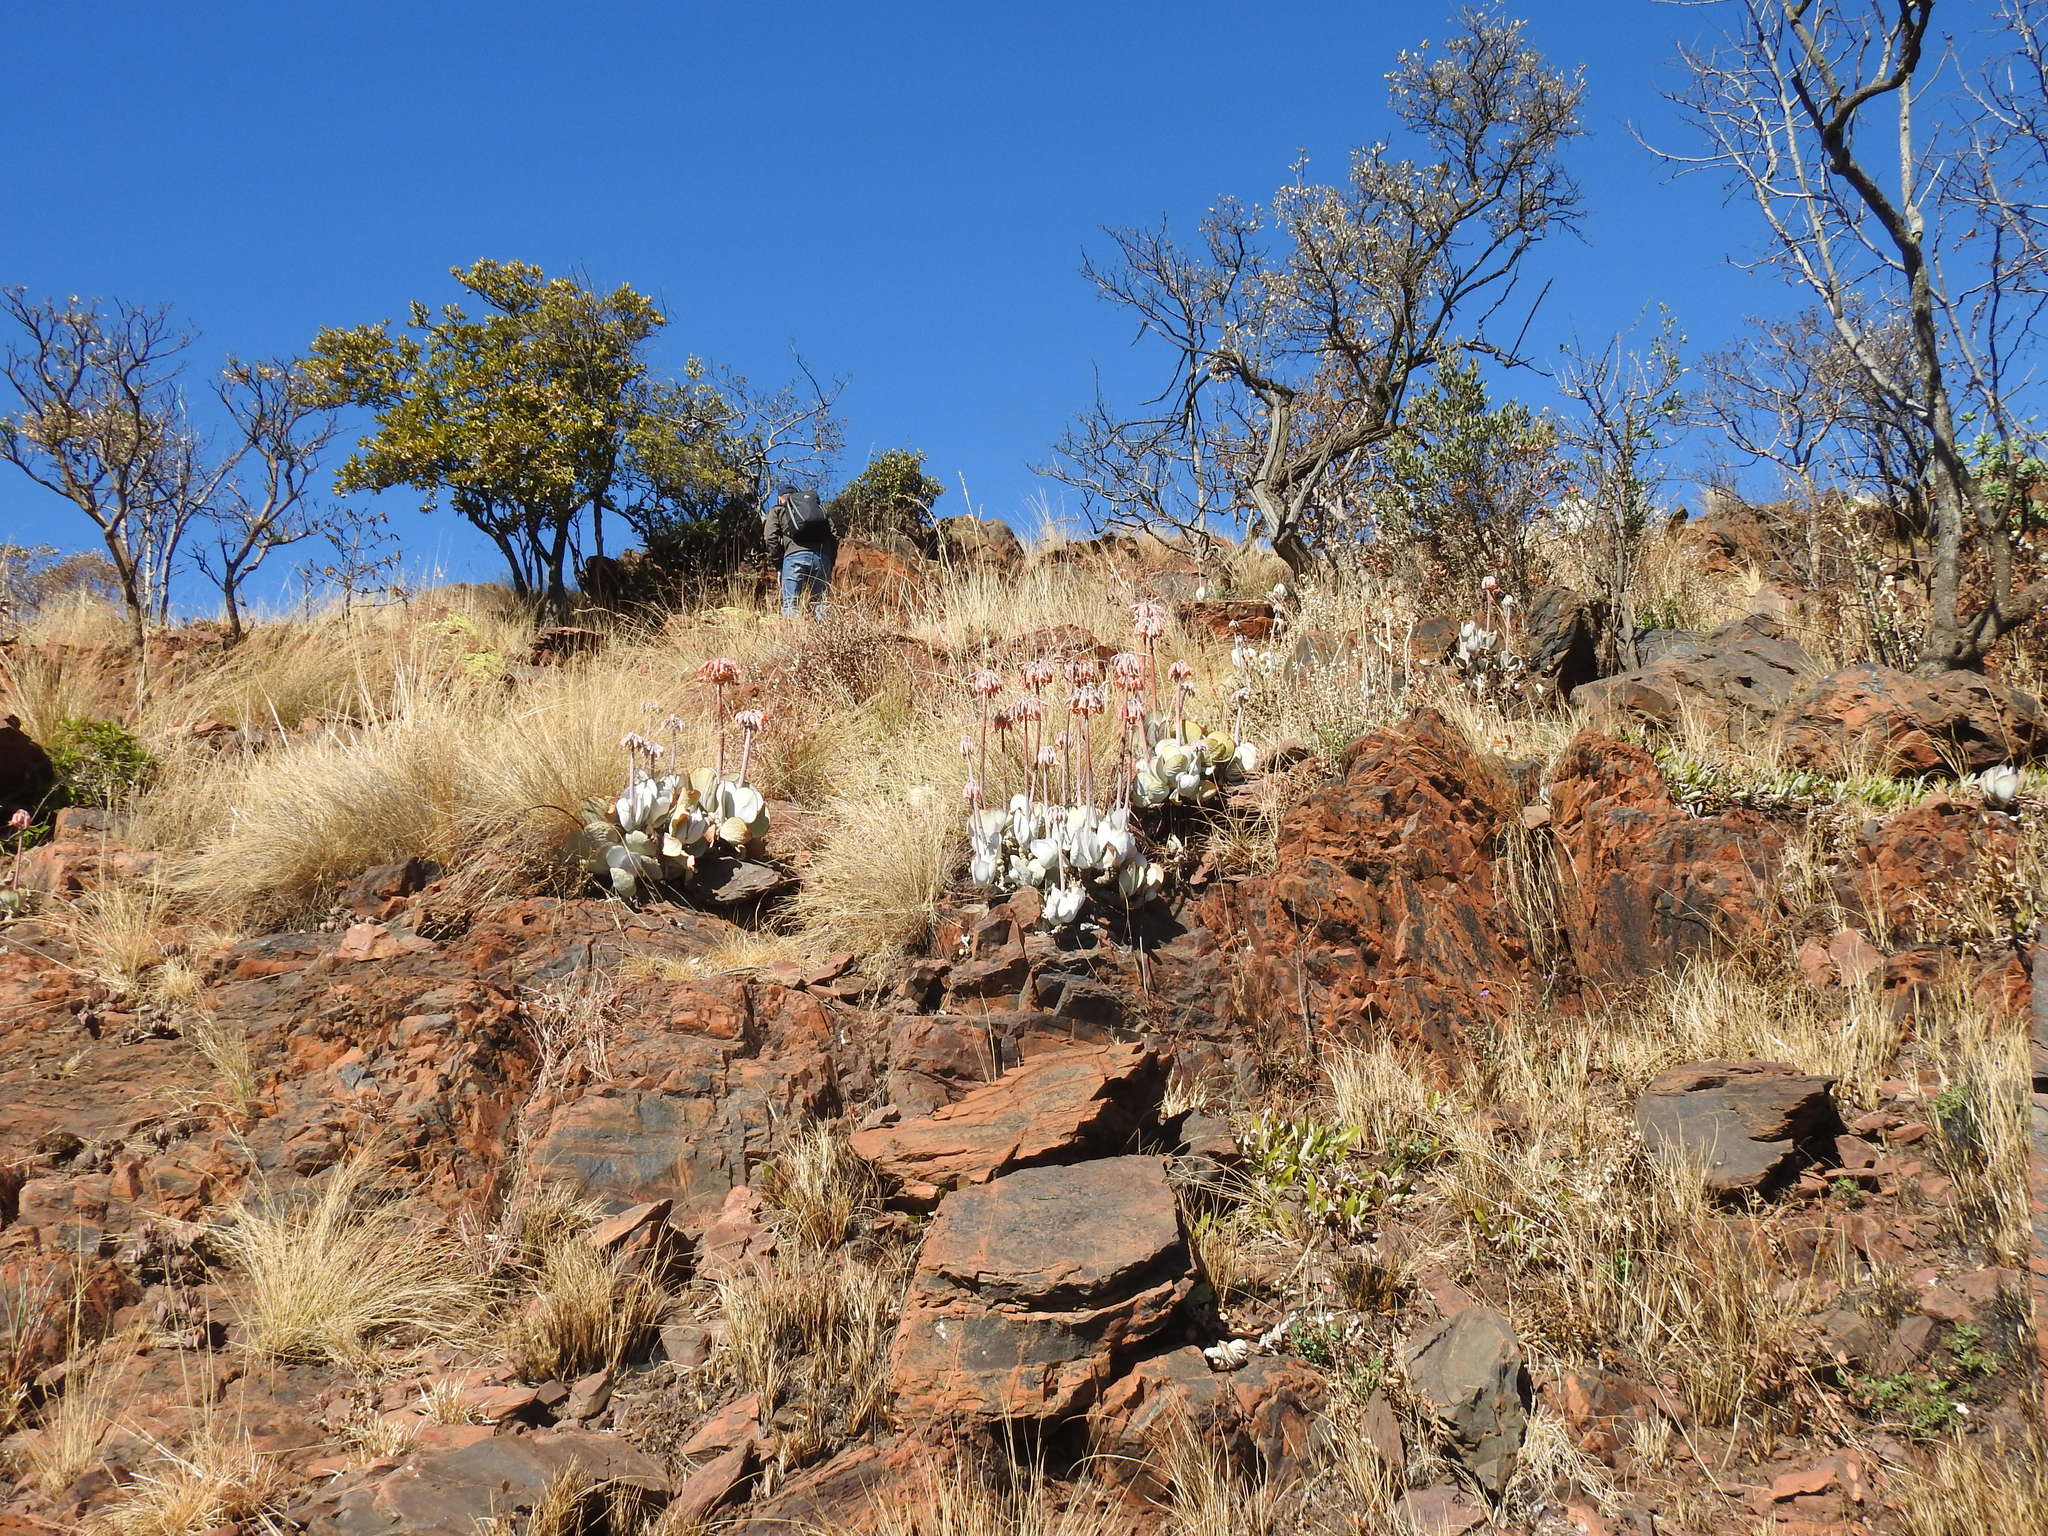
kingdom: Plantae
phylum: Tracheophyta
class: Magnoliopsida
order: Saxifragales
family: Crassulaceae
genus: Cotyledon
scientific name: Cotyledon orbiculata
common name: Pig's ear
